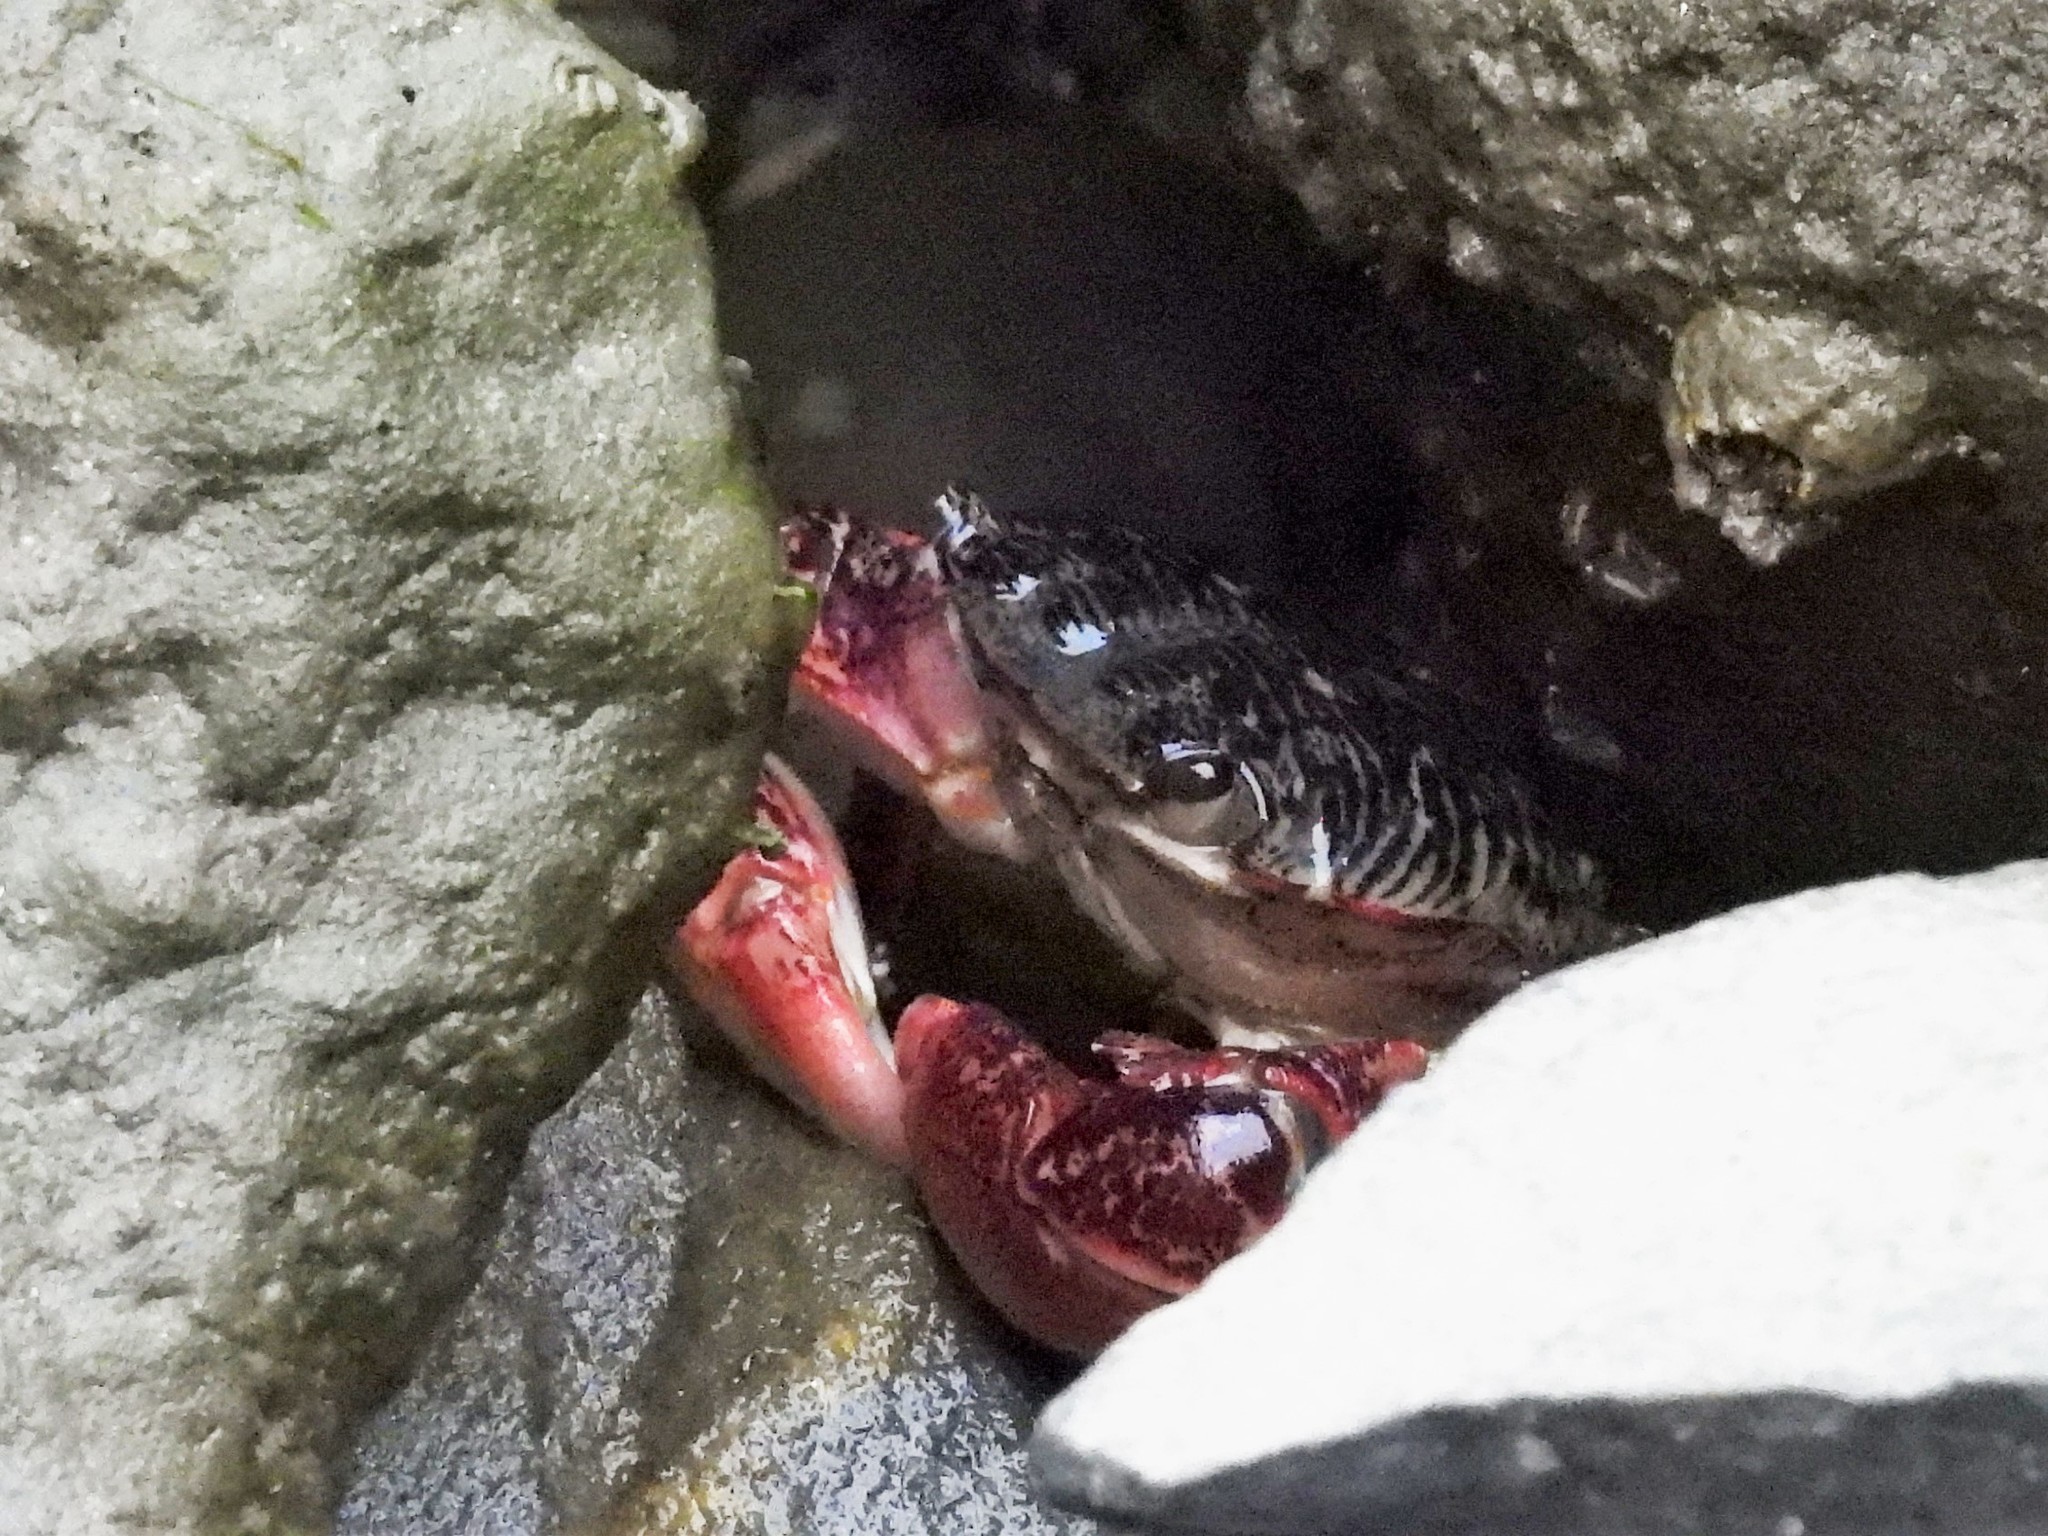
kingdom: Animalia
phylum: Arthropoda
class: Malacostraca
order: Decapoda
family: Grapsidae
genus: Pachygrapsus
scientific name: Pachygrapsus crassipes
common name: Striped shore crab
